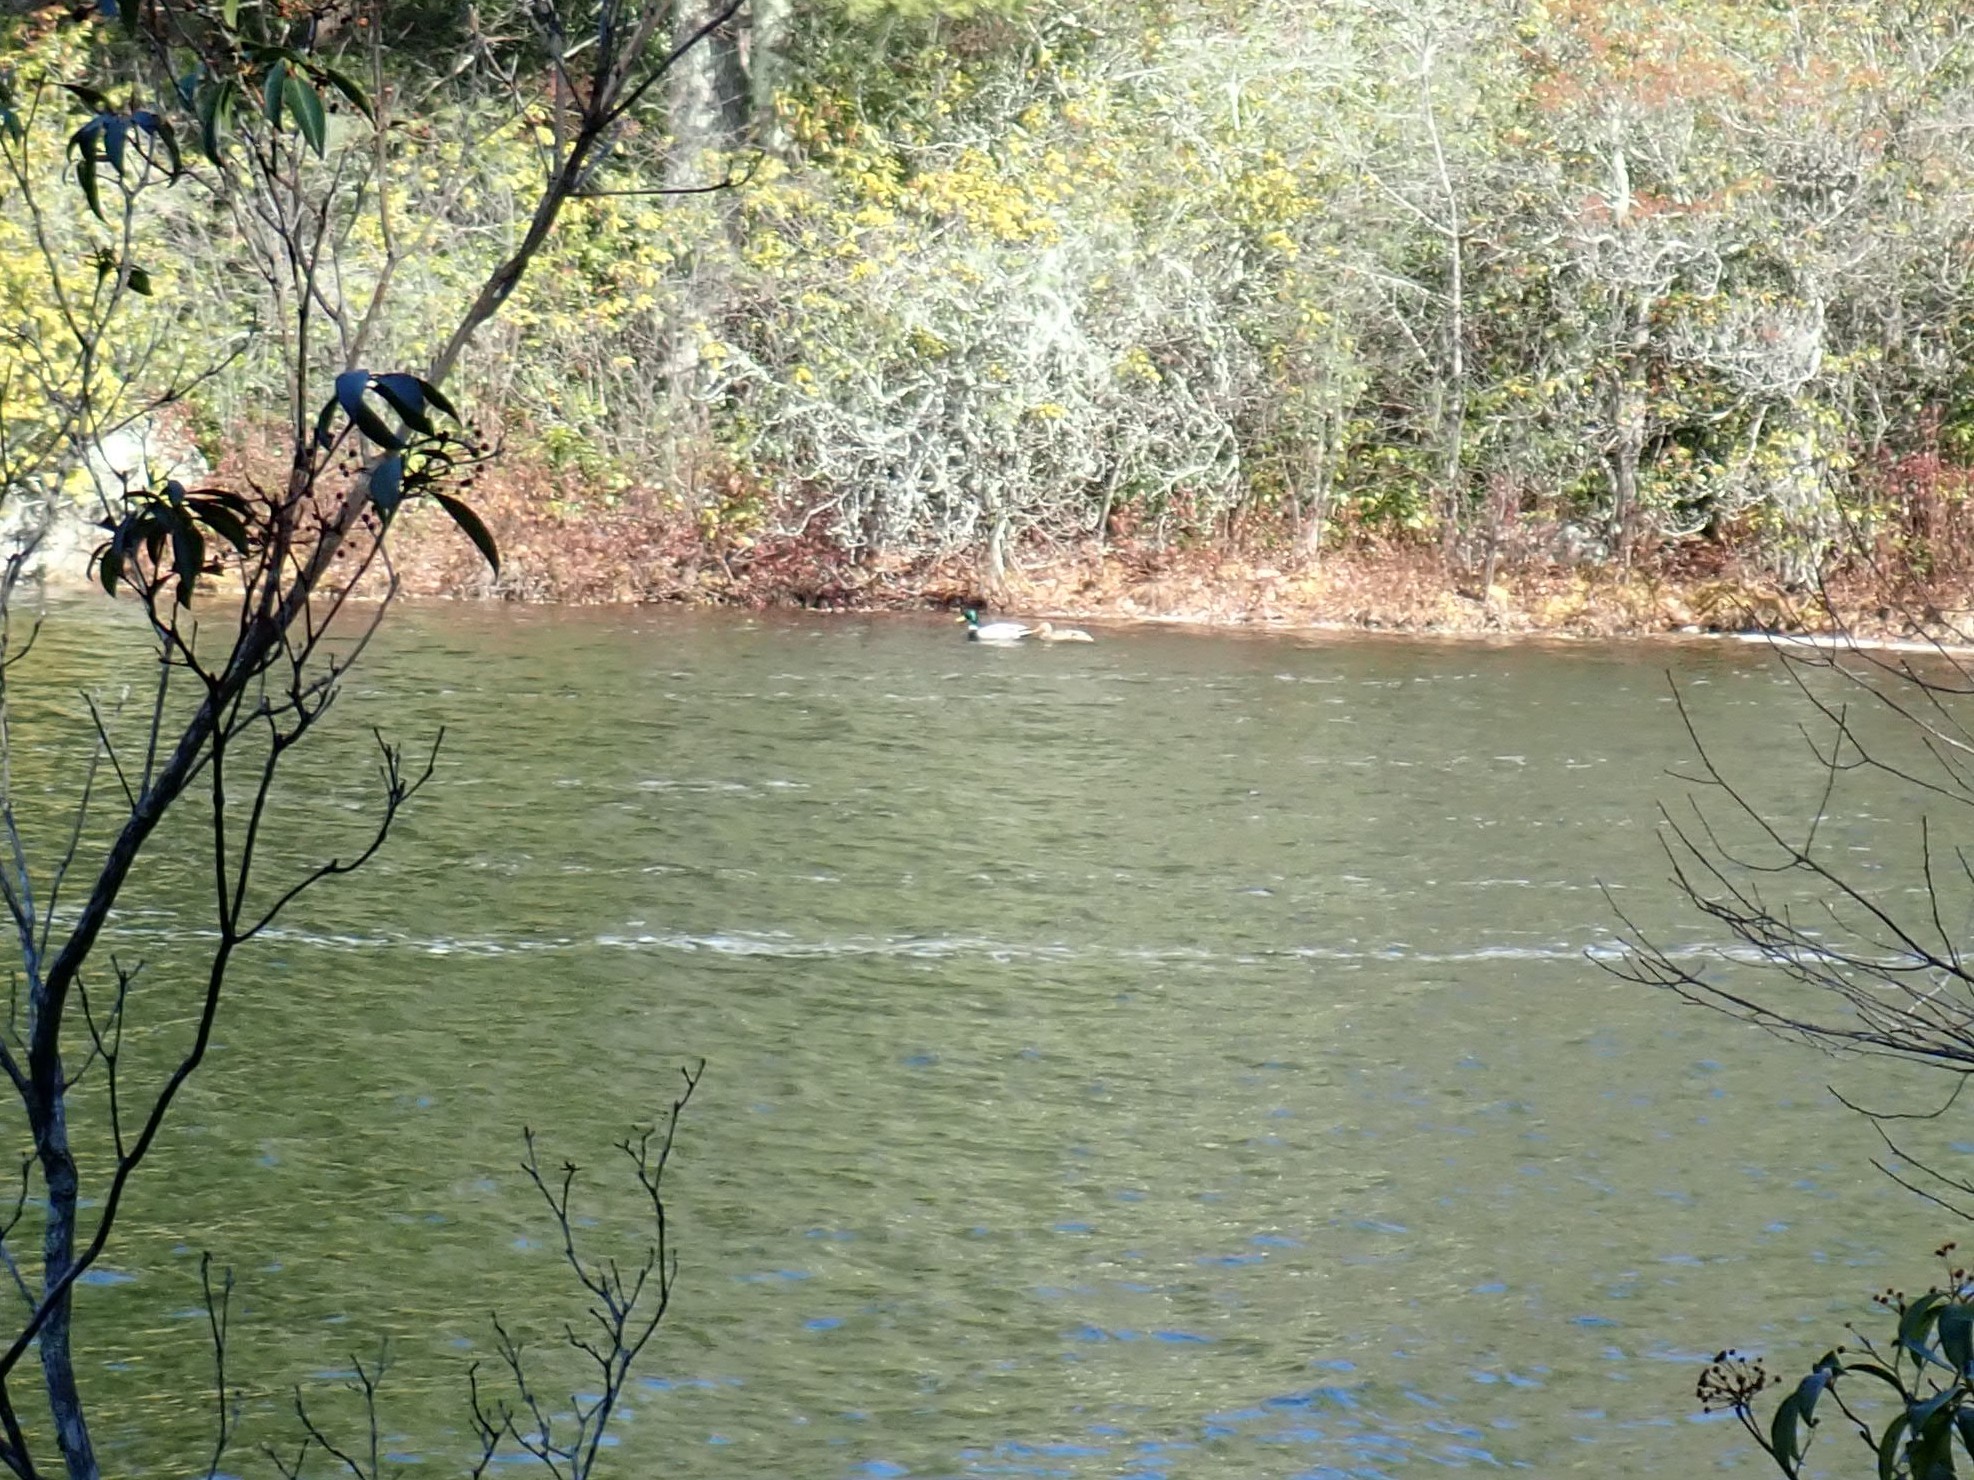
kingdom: Animalia
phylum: Chordata
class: Aves
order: Anseriformes
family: Anatidae
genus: Anas
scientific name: Anas platyrhynchos
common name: Mallard
